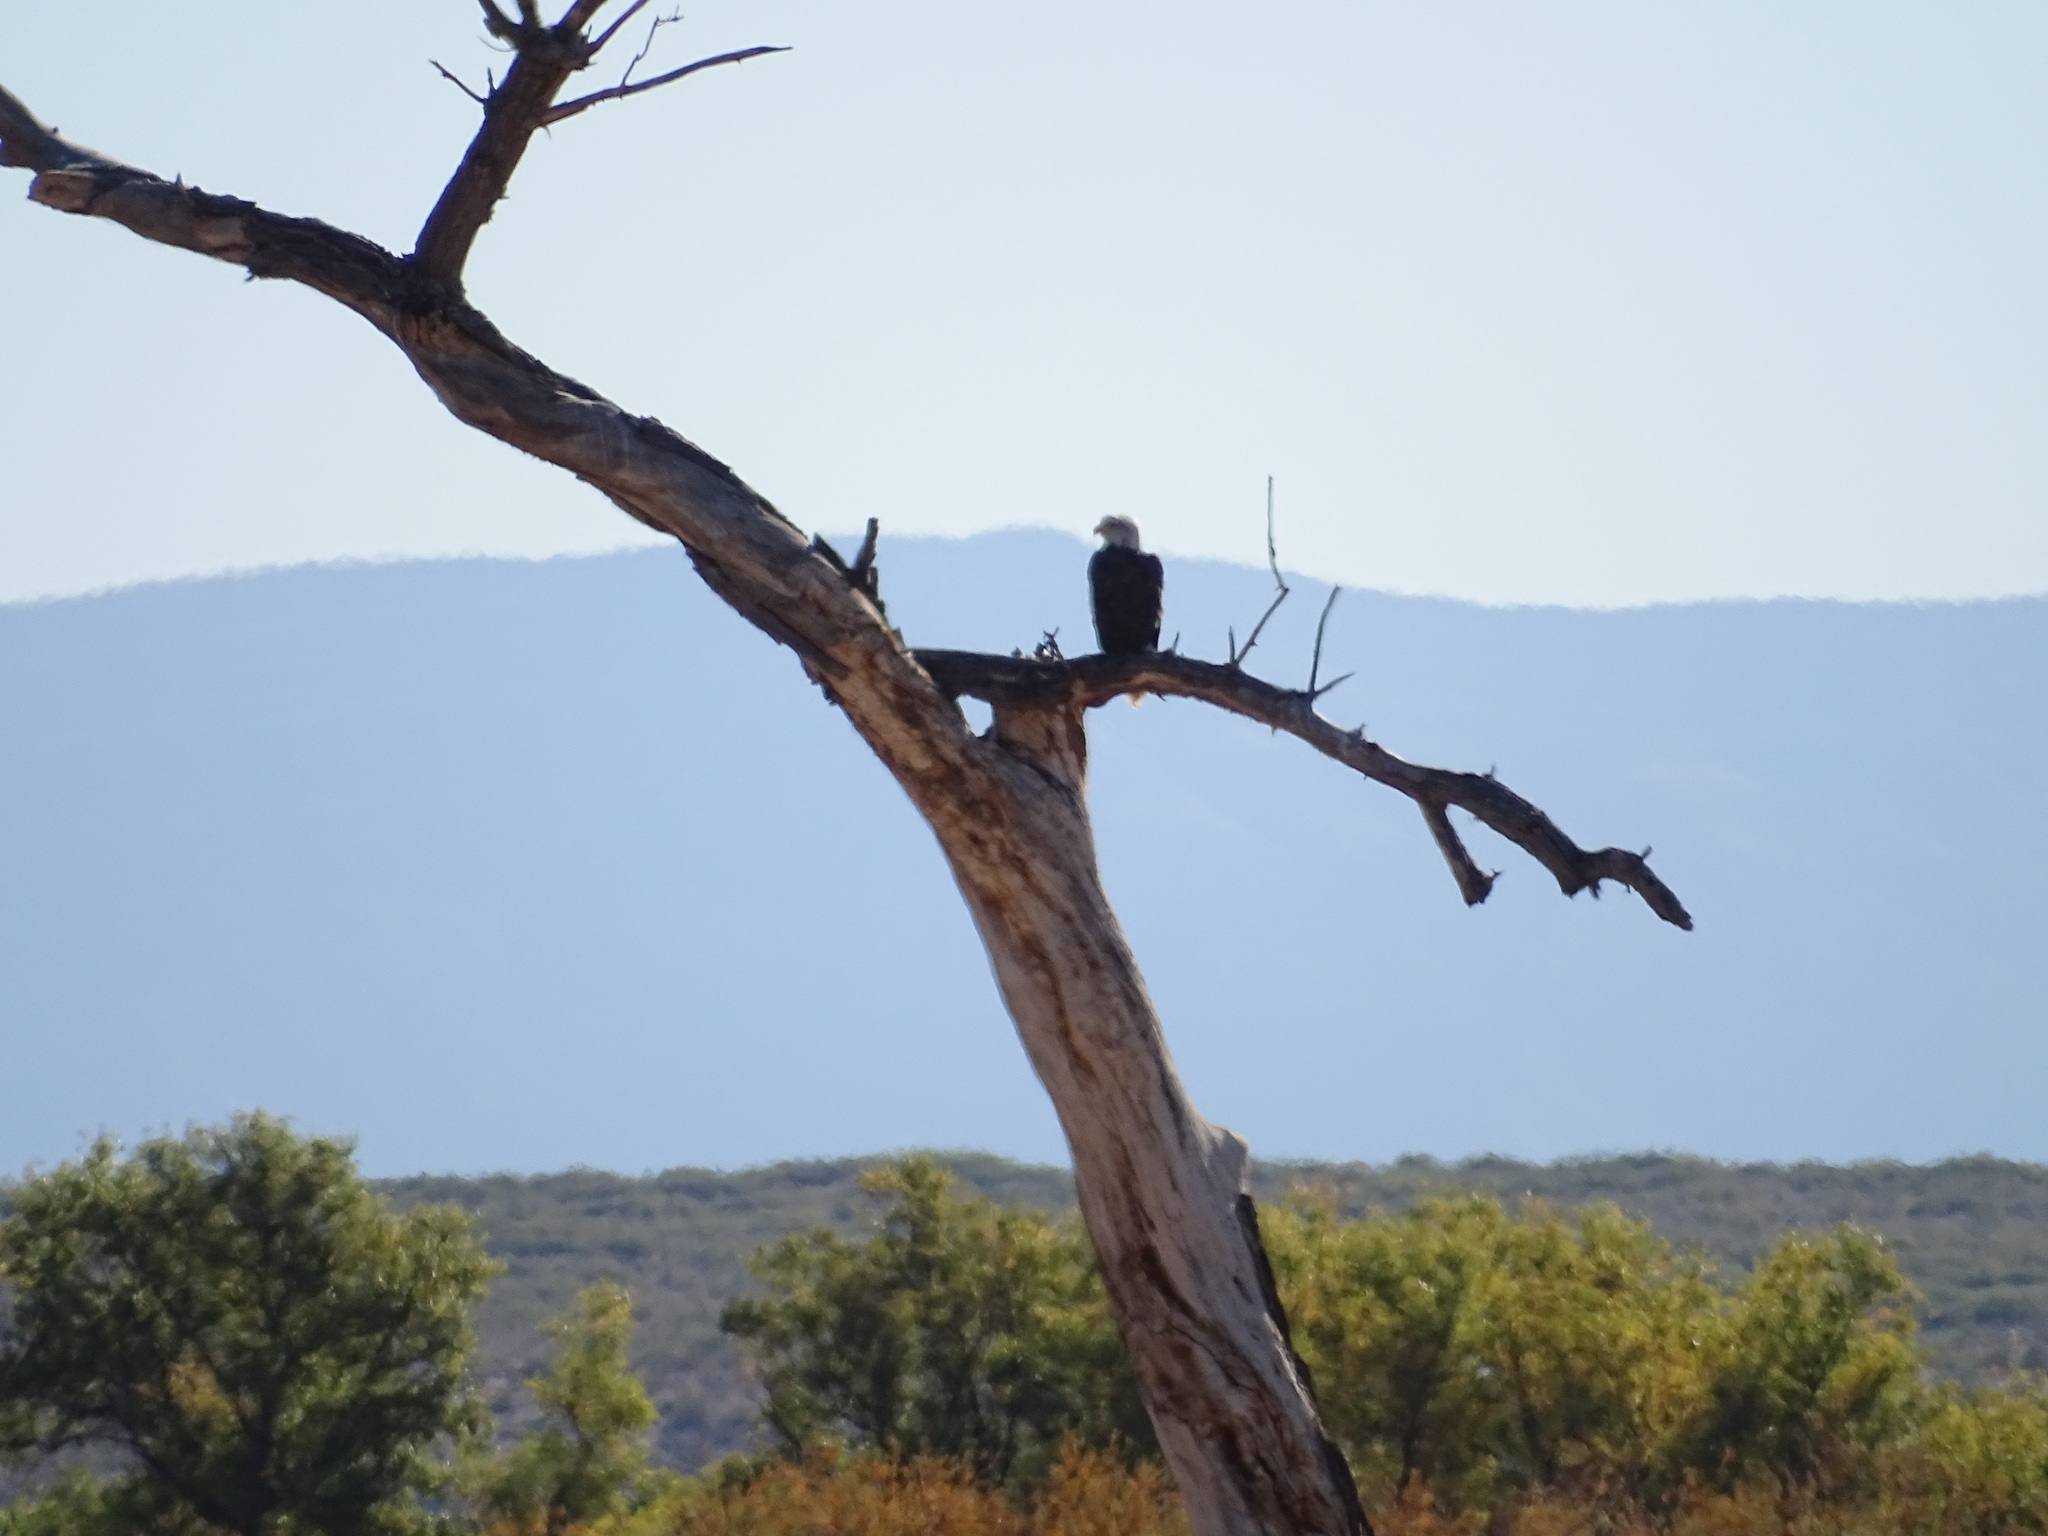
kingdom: Animalia
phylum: Chordata
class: Aves
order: Accipitriformes
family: Accipitridae
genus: Haliaeetus
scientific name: Haliaeetus leucocephalus
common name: Bald eagle
